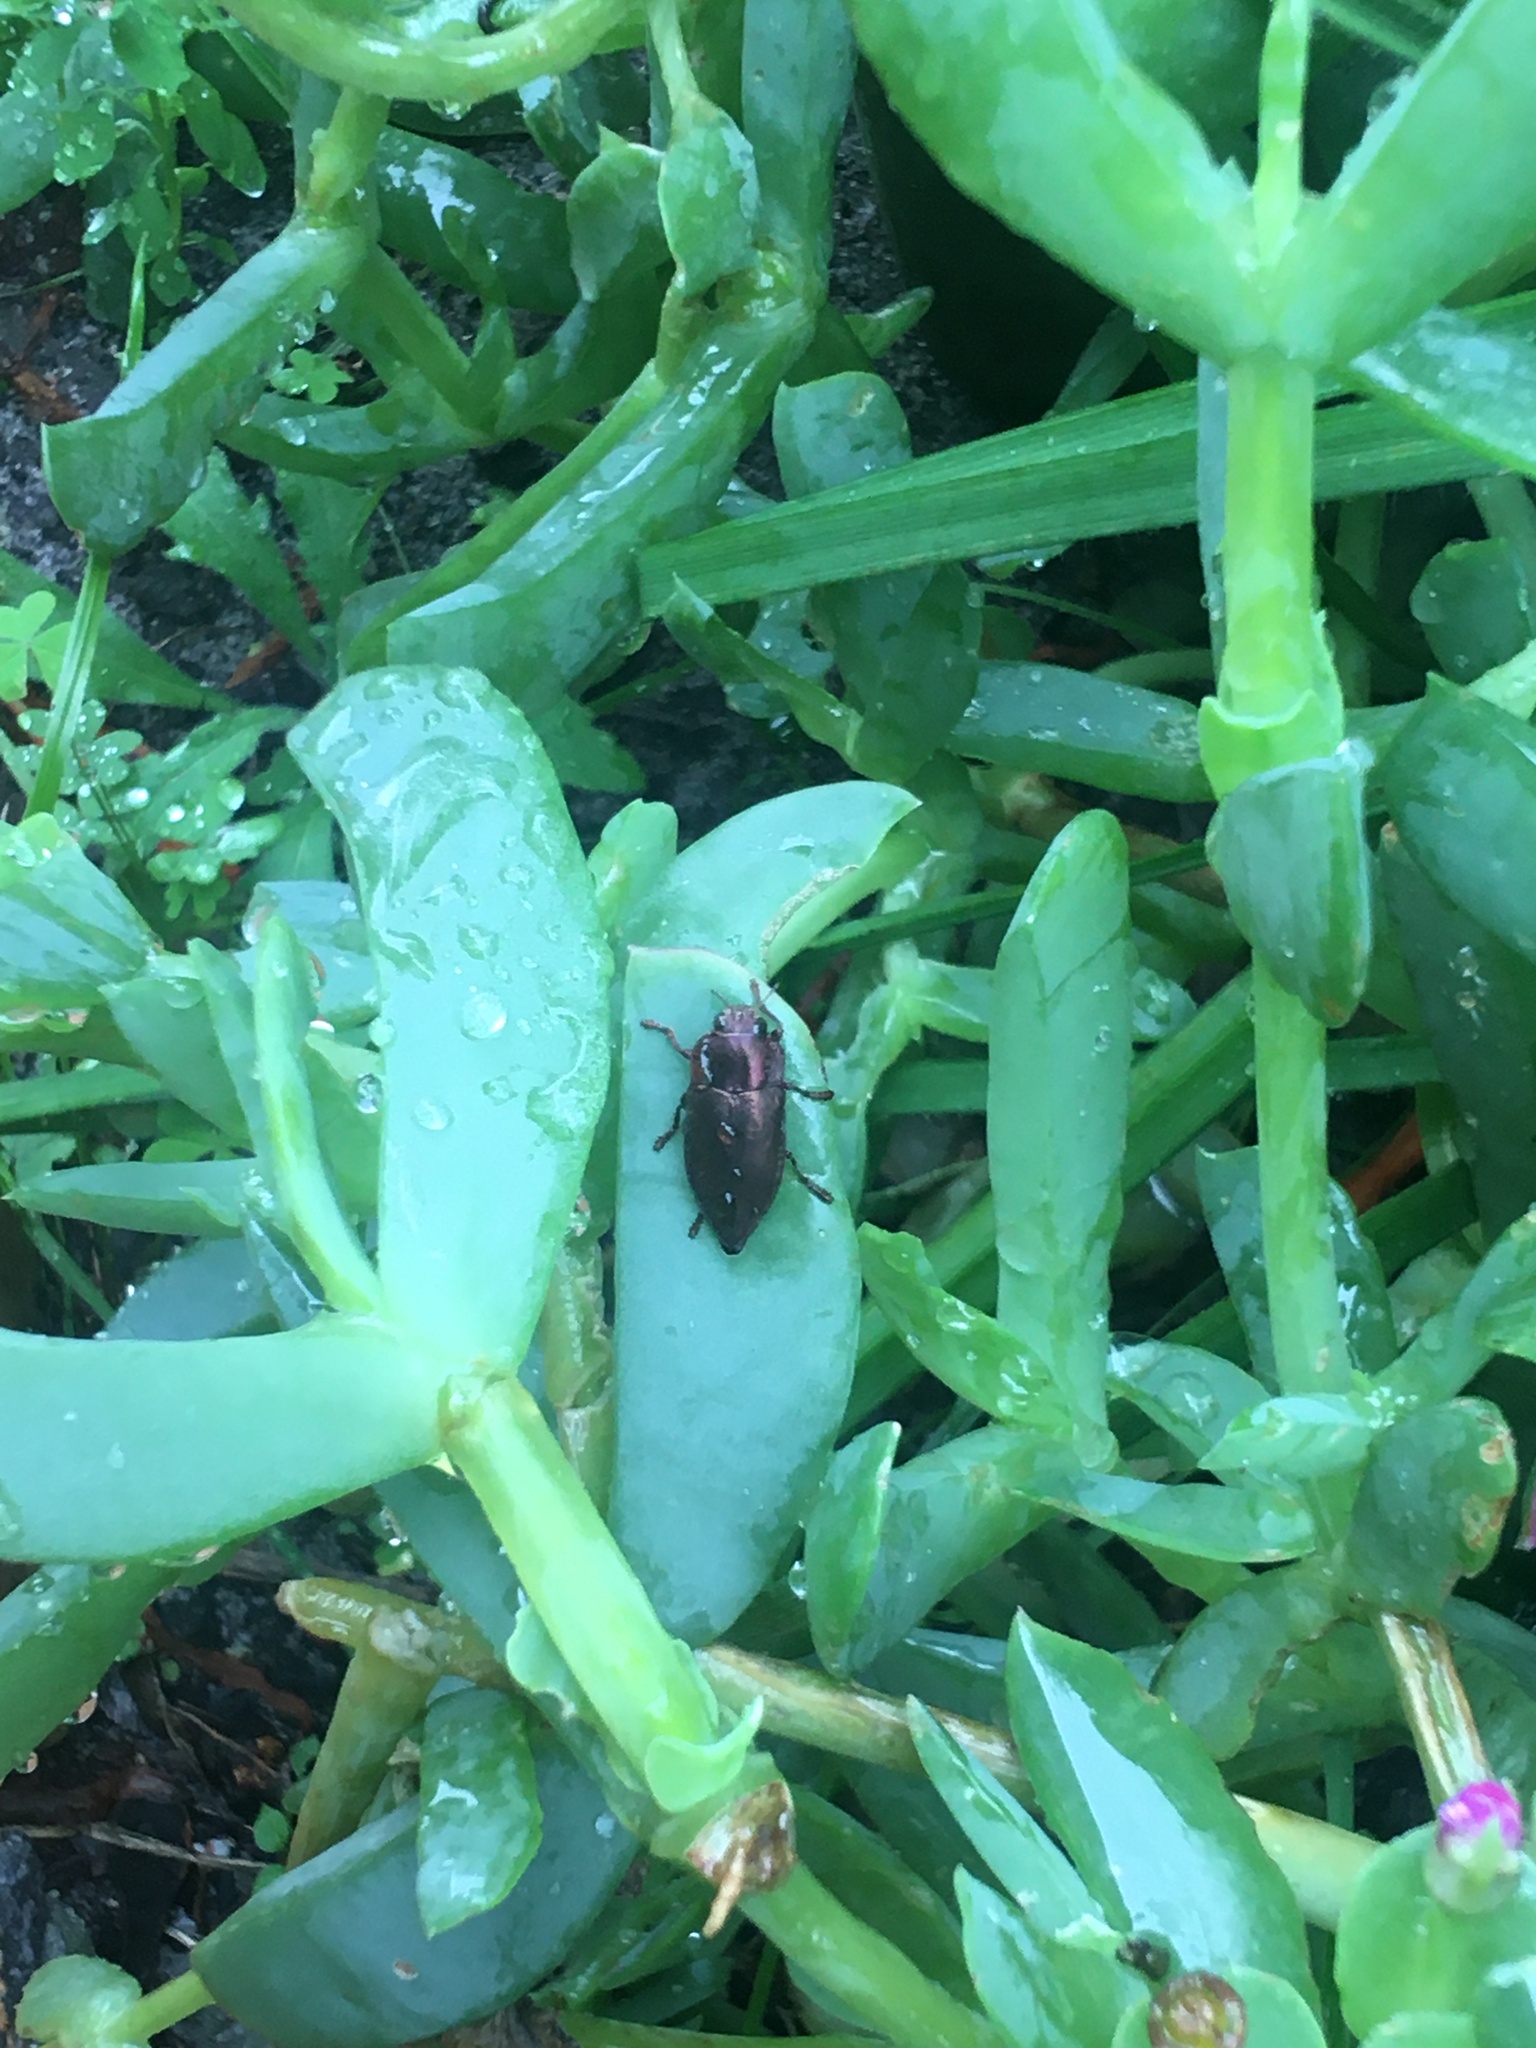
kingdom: Animalia
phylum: Arthropoda
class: Insecta
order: Coleoptera
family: Buprestidae
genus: Oedisterna
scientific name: Oedisterna cuprea
